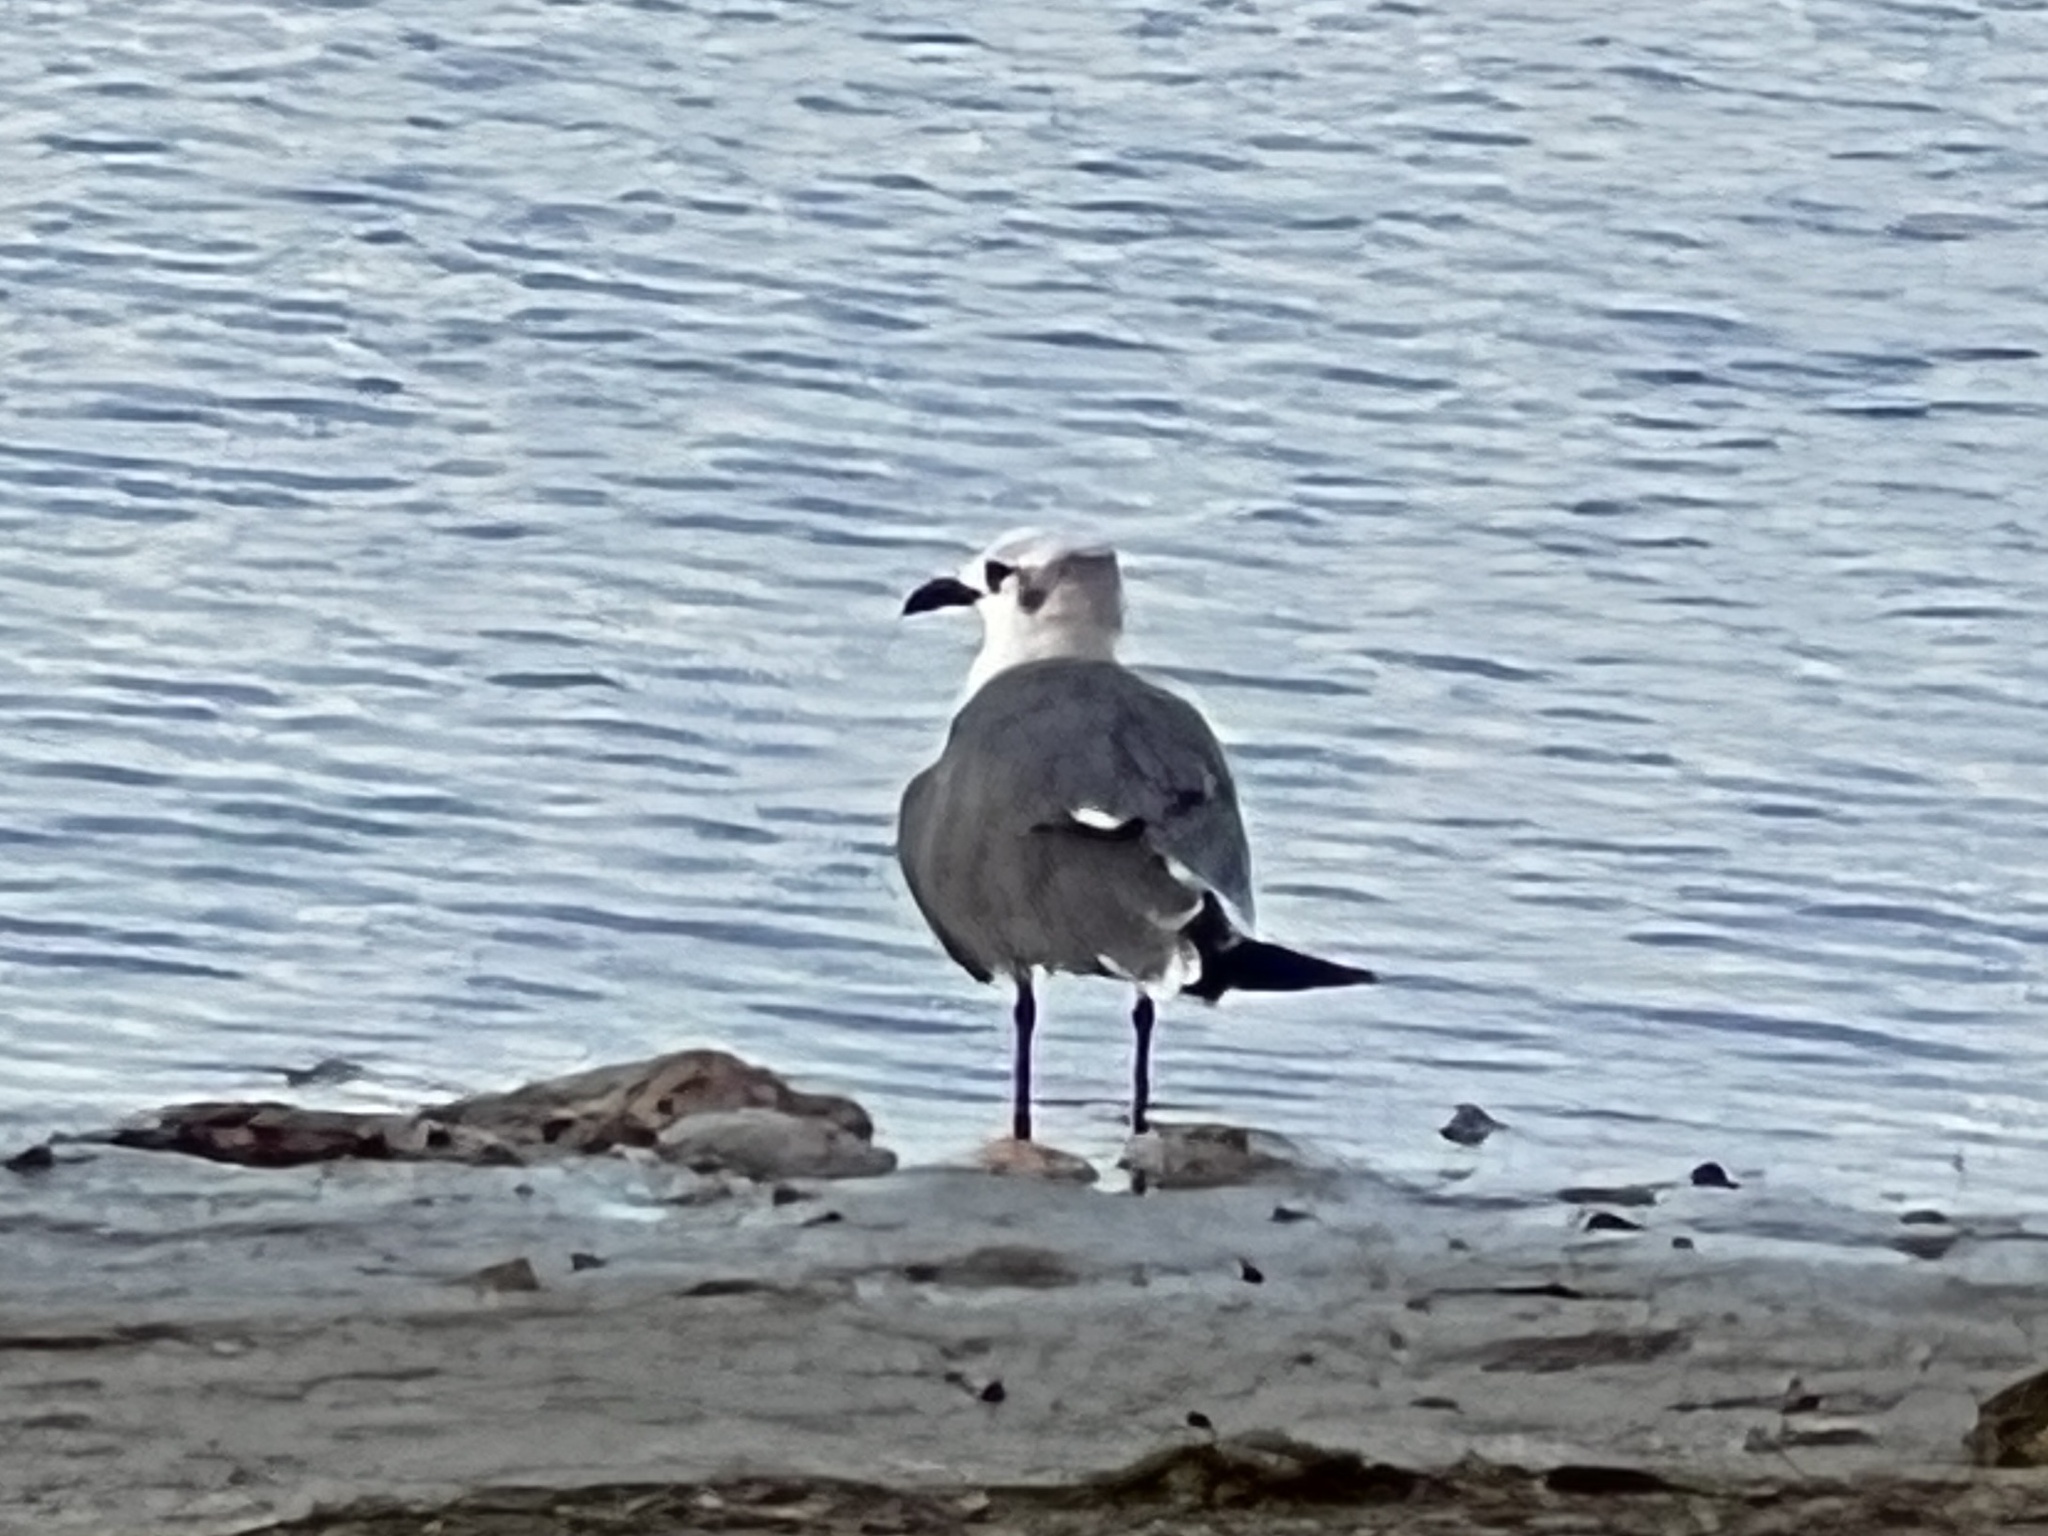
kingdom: Animalia
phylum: Chordata
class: Aves
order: Charadriiformes
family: Laridae
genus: Leucophaeus
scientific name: Leucophaeus atricilla
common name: Laughing gull
